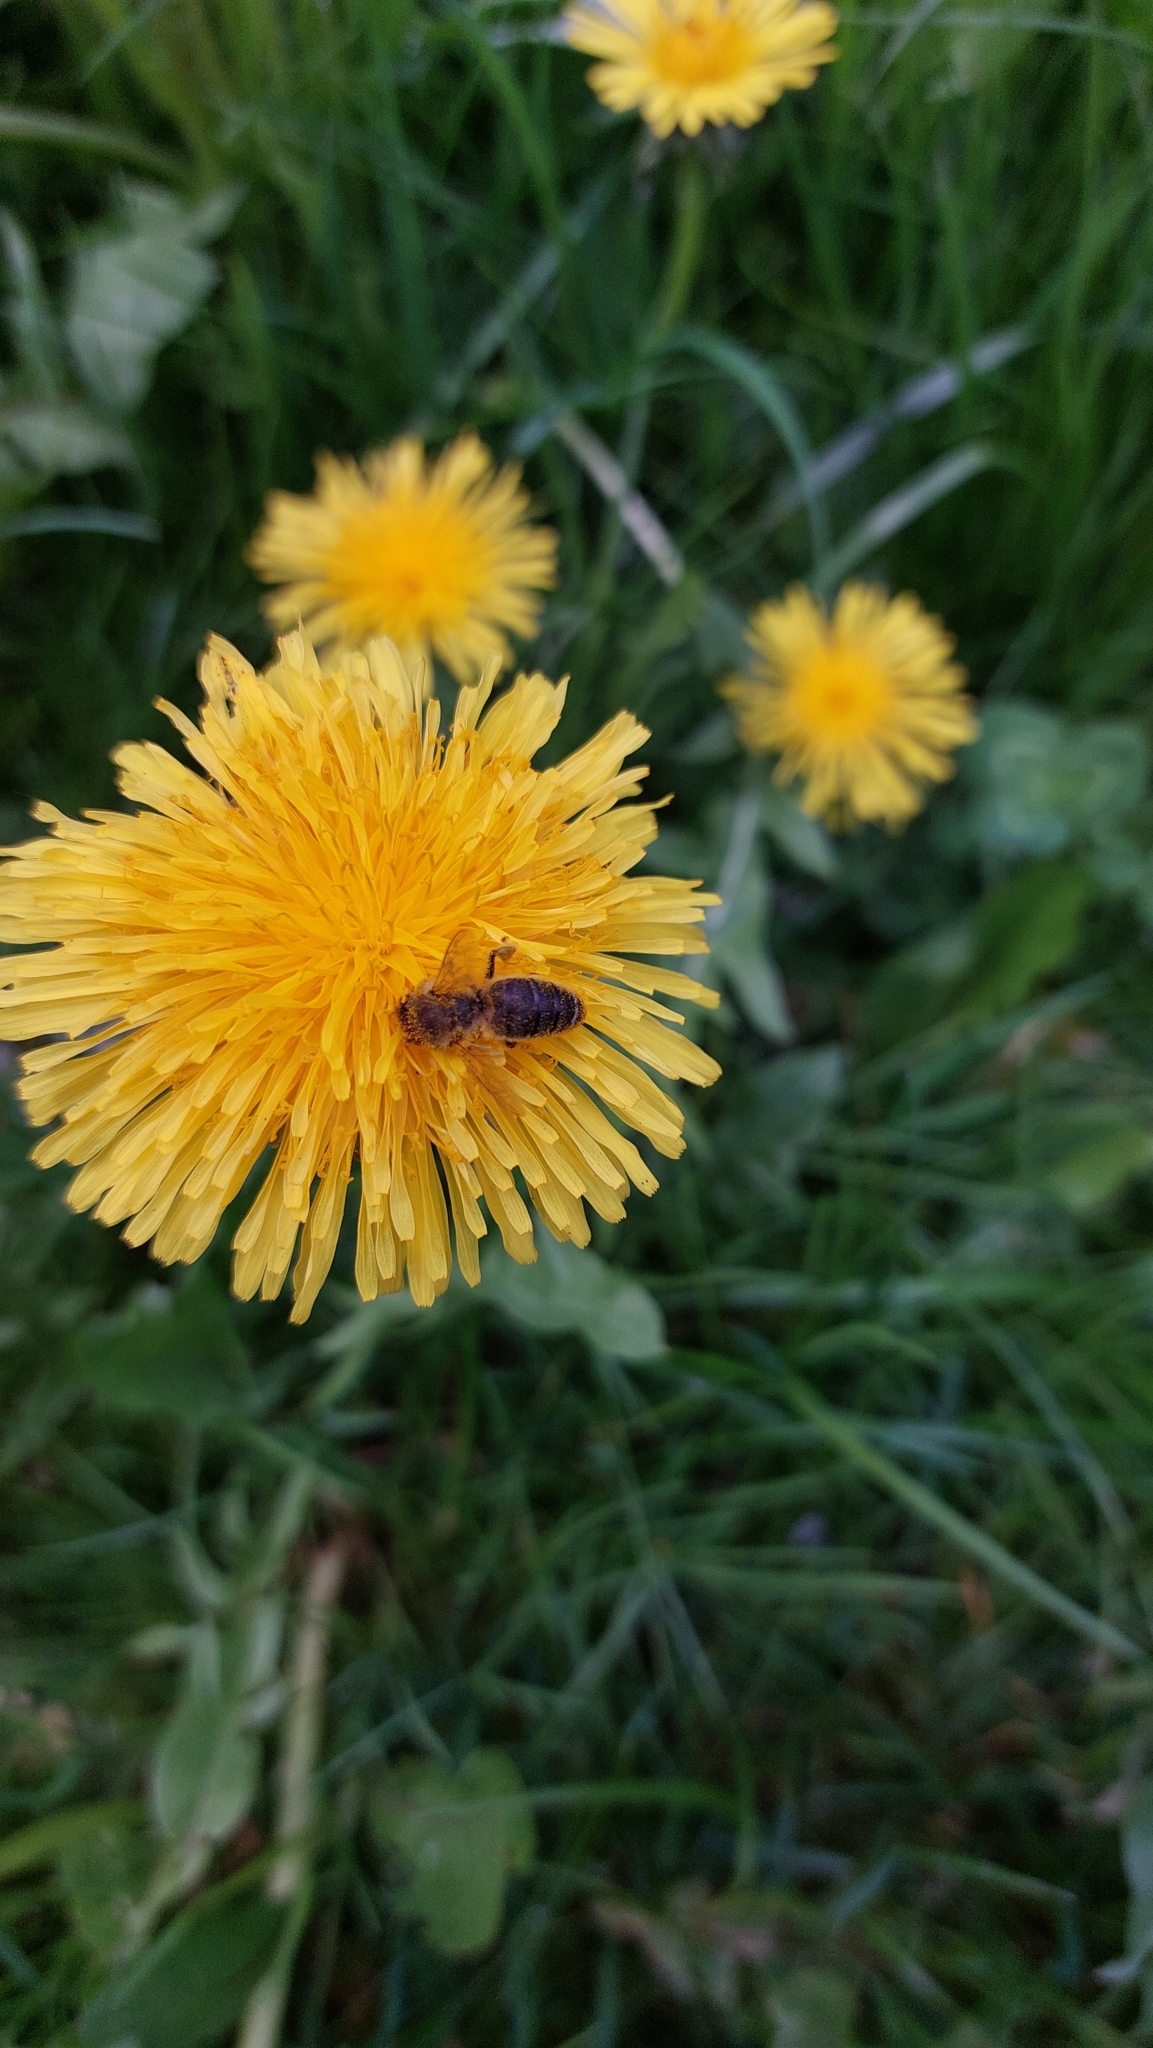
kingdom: Animalia
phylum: Arthropoda
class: Insecta
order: Hymenoptera
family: Apidae
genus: Apis
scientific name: Apis mellifera
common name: Honey bee
